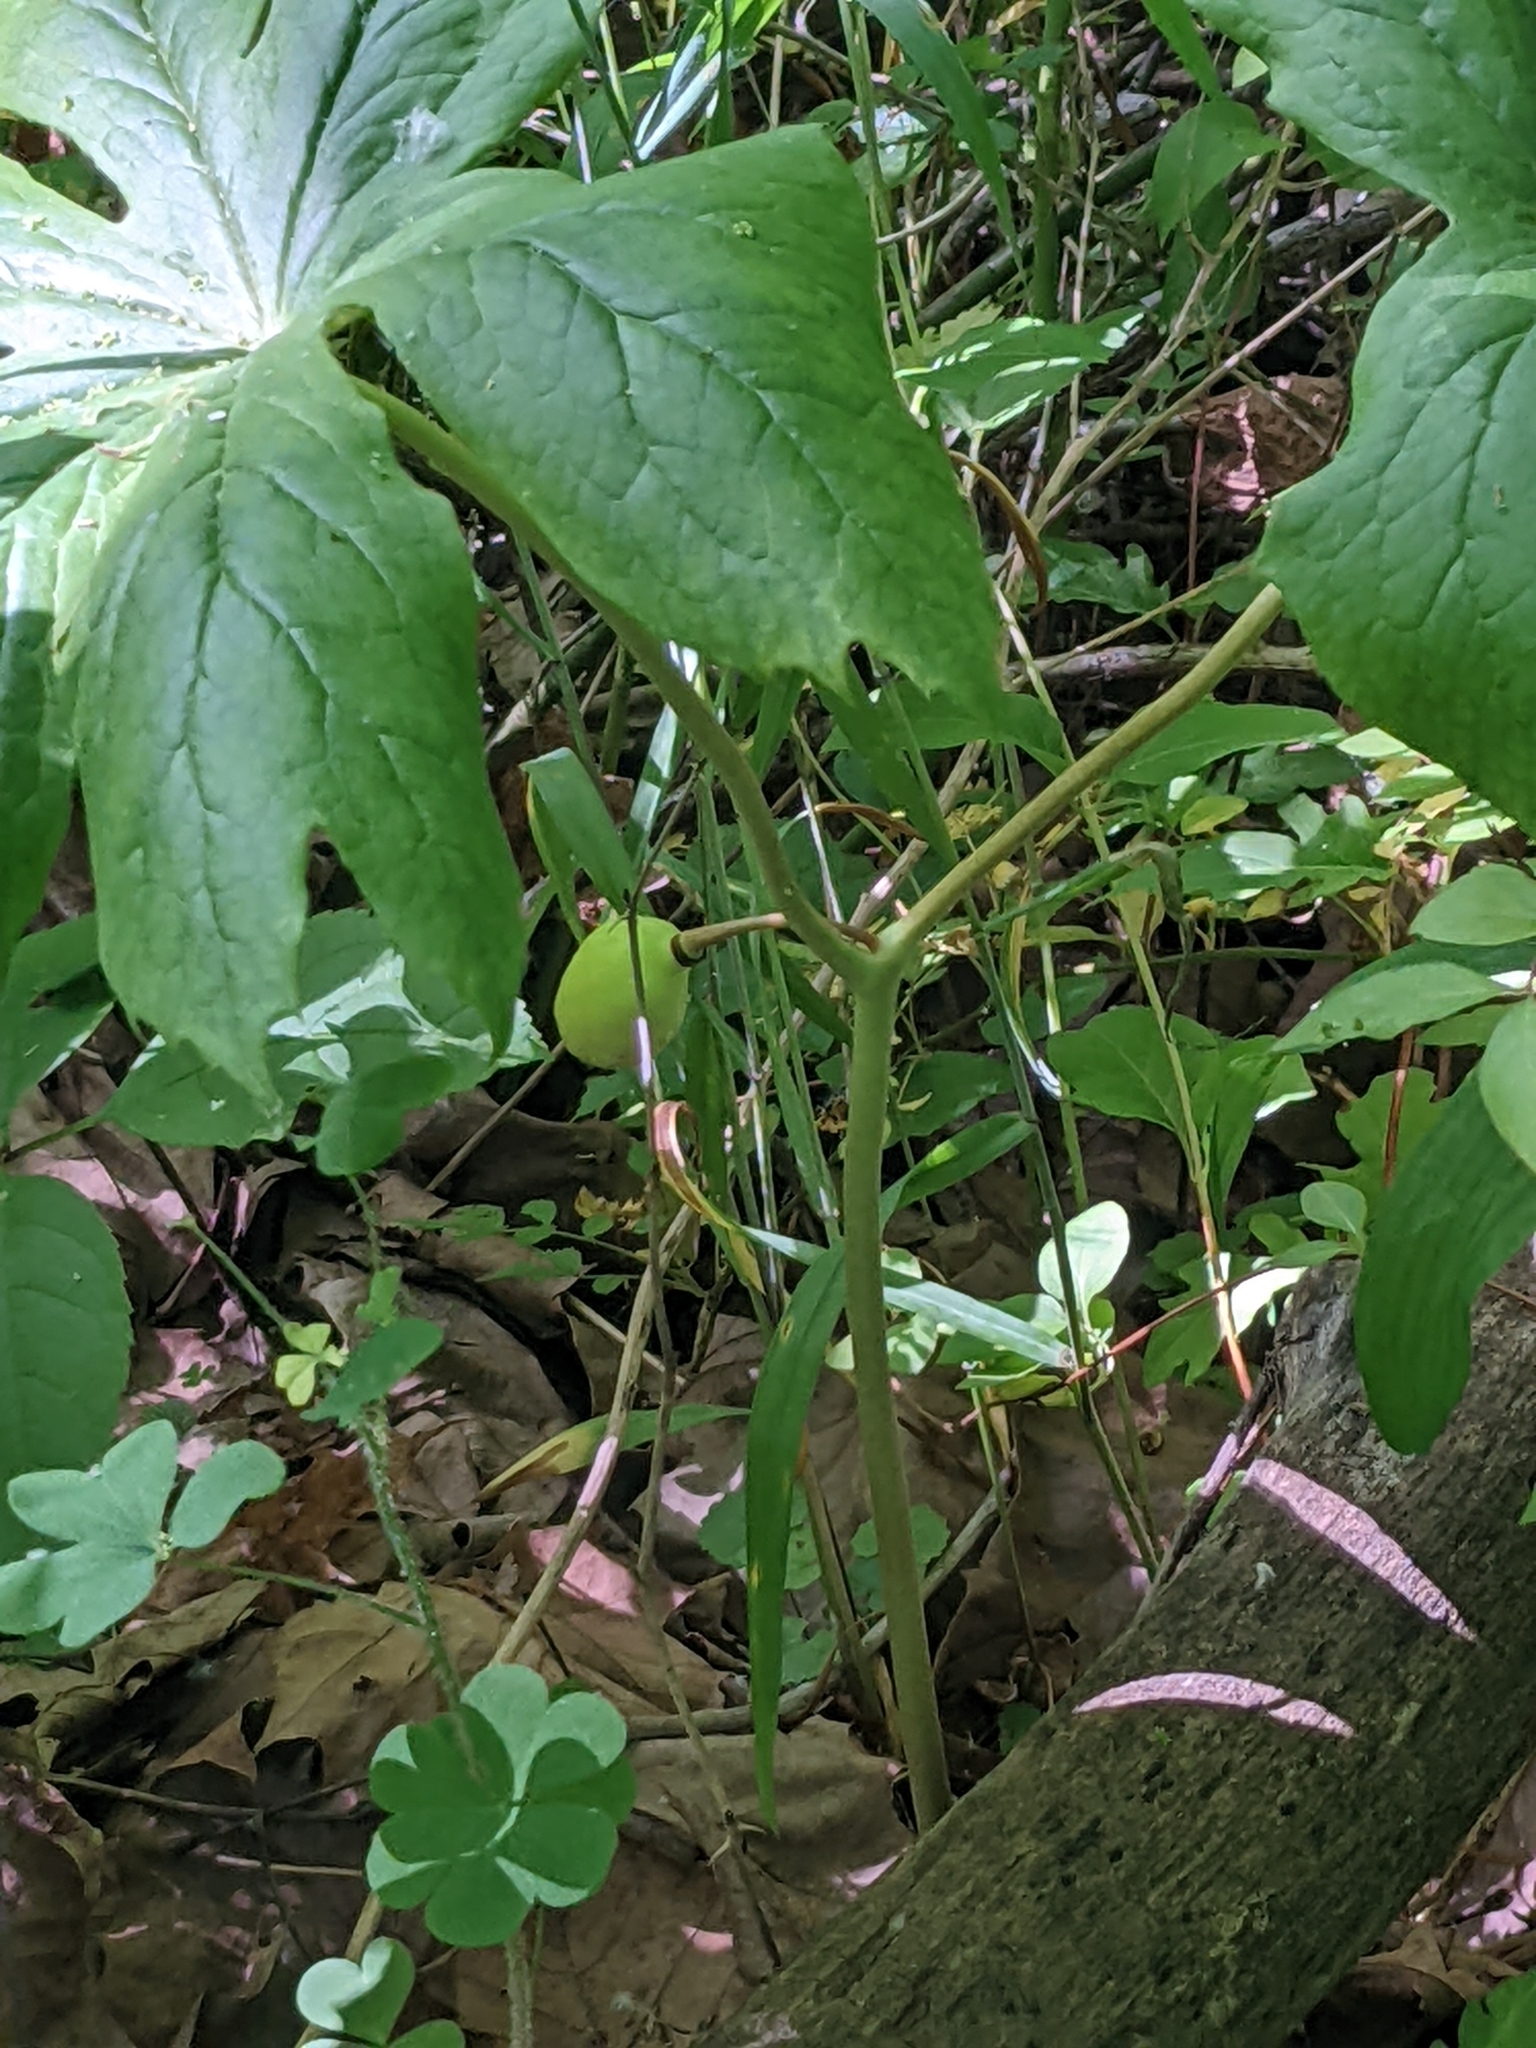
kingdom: Plantae
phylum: Tracheophyta
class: Magnoliopsida
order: Ranunculales
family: Berberidaceae
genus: Podophyllum
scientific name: Podophyllum peltatum
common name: Wild mandrake
